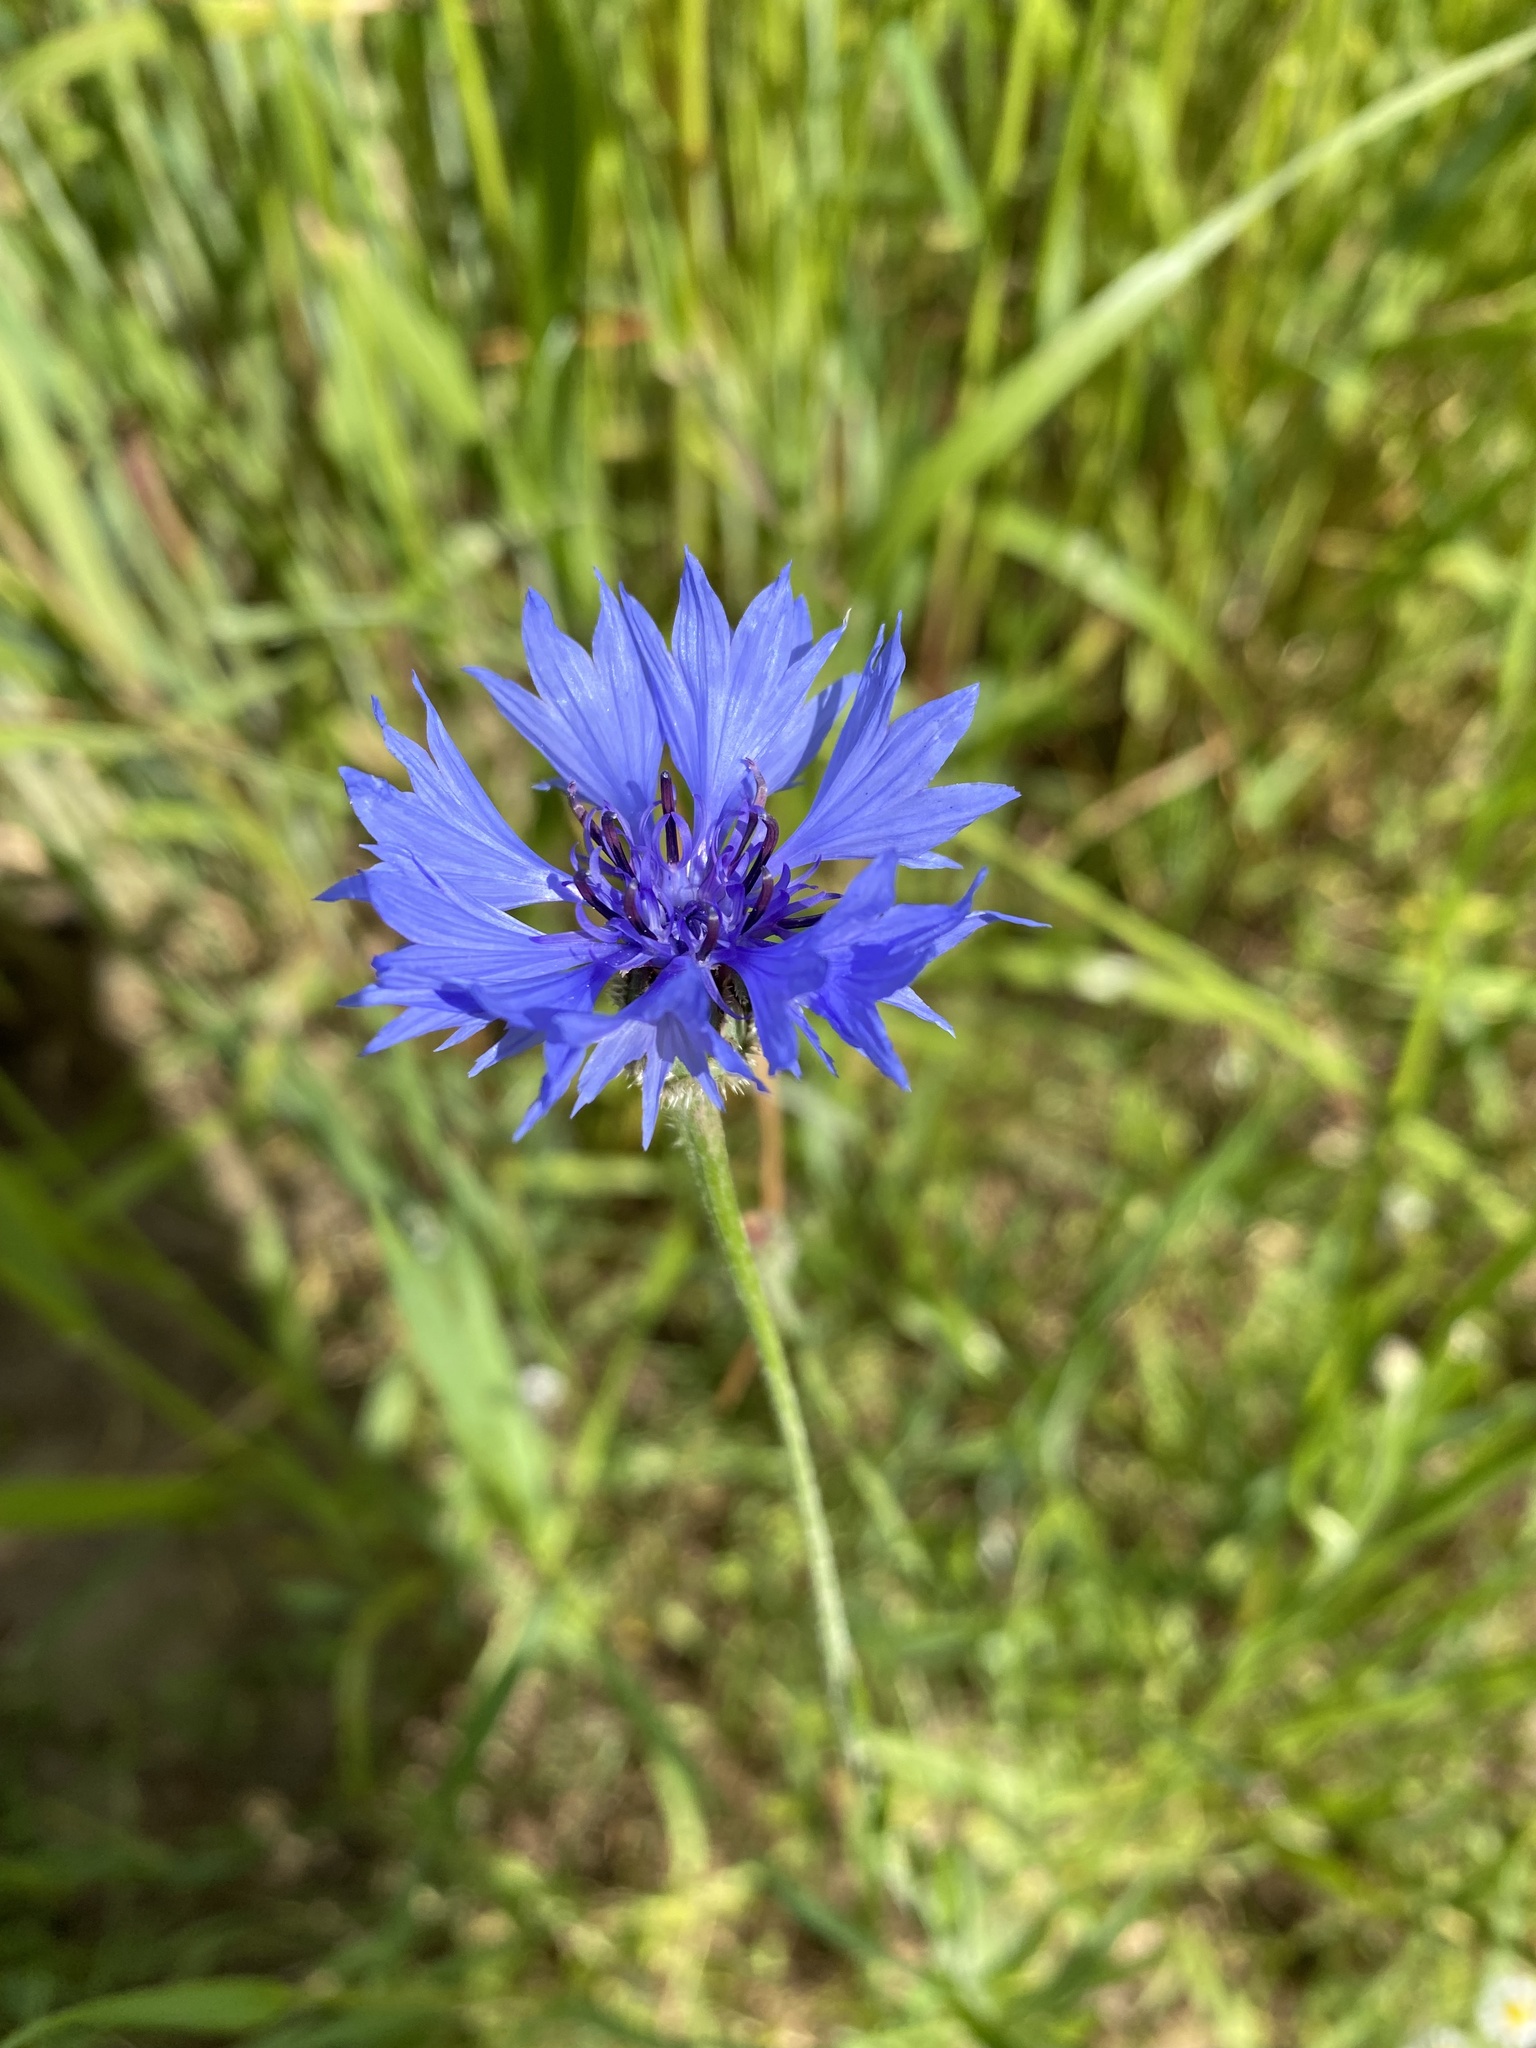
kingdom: Plantae
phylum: Tracheophyta
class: Magnoliopsida
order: Asterales
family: Asteraceae
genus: Centaurea
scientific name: Centaurea cyanus
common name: Cornflower
